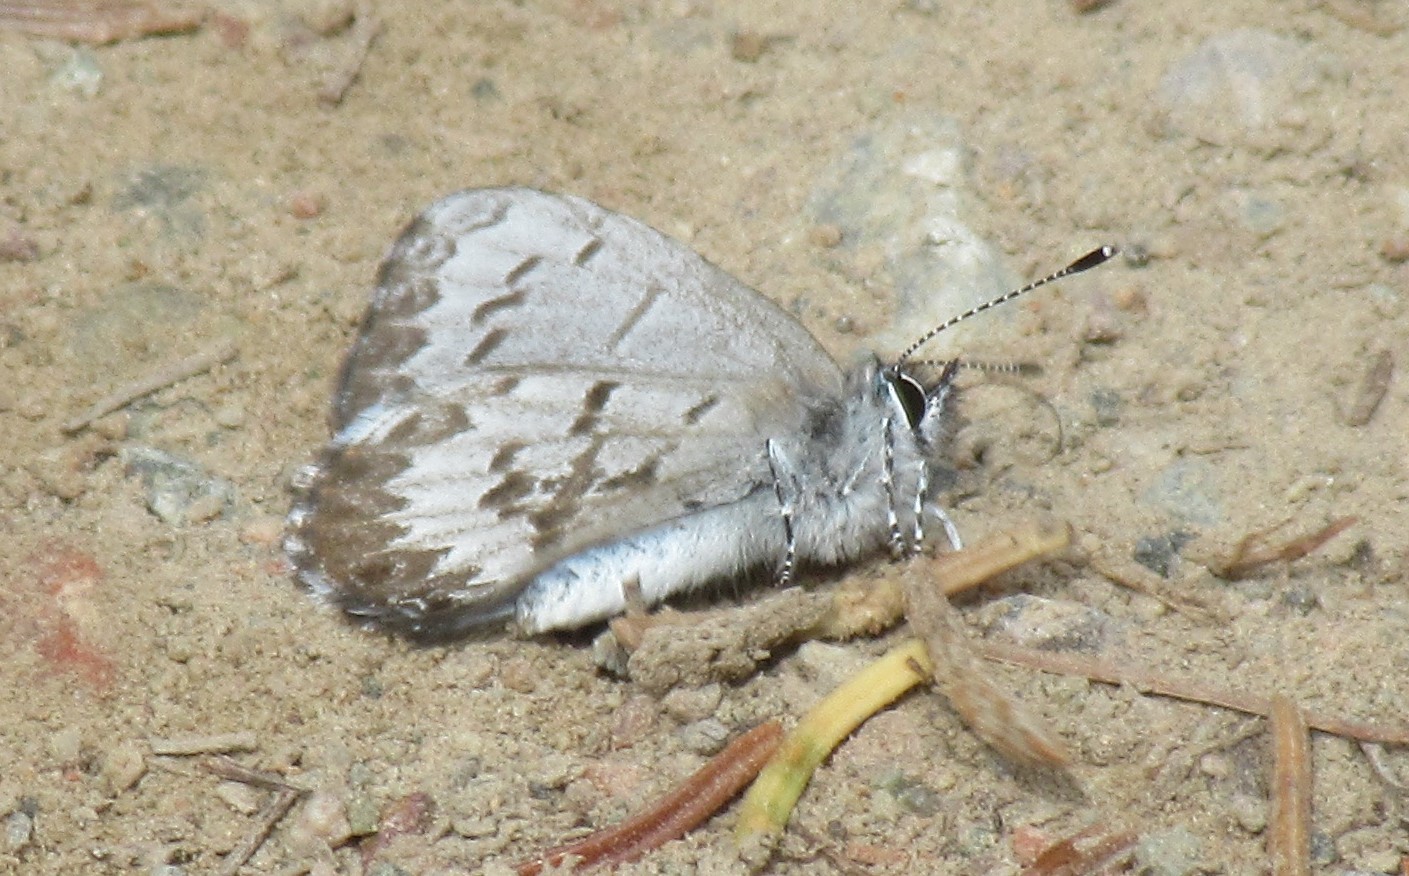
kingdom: Animalia
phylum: Arthropoda
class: Insecta
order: Lepidoptera
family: Lycaenidae
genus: Celastrina
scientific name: Celastrina lucia
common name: Lucia azure
